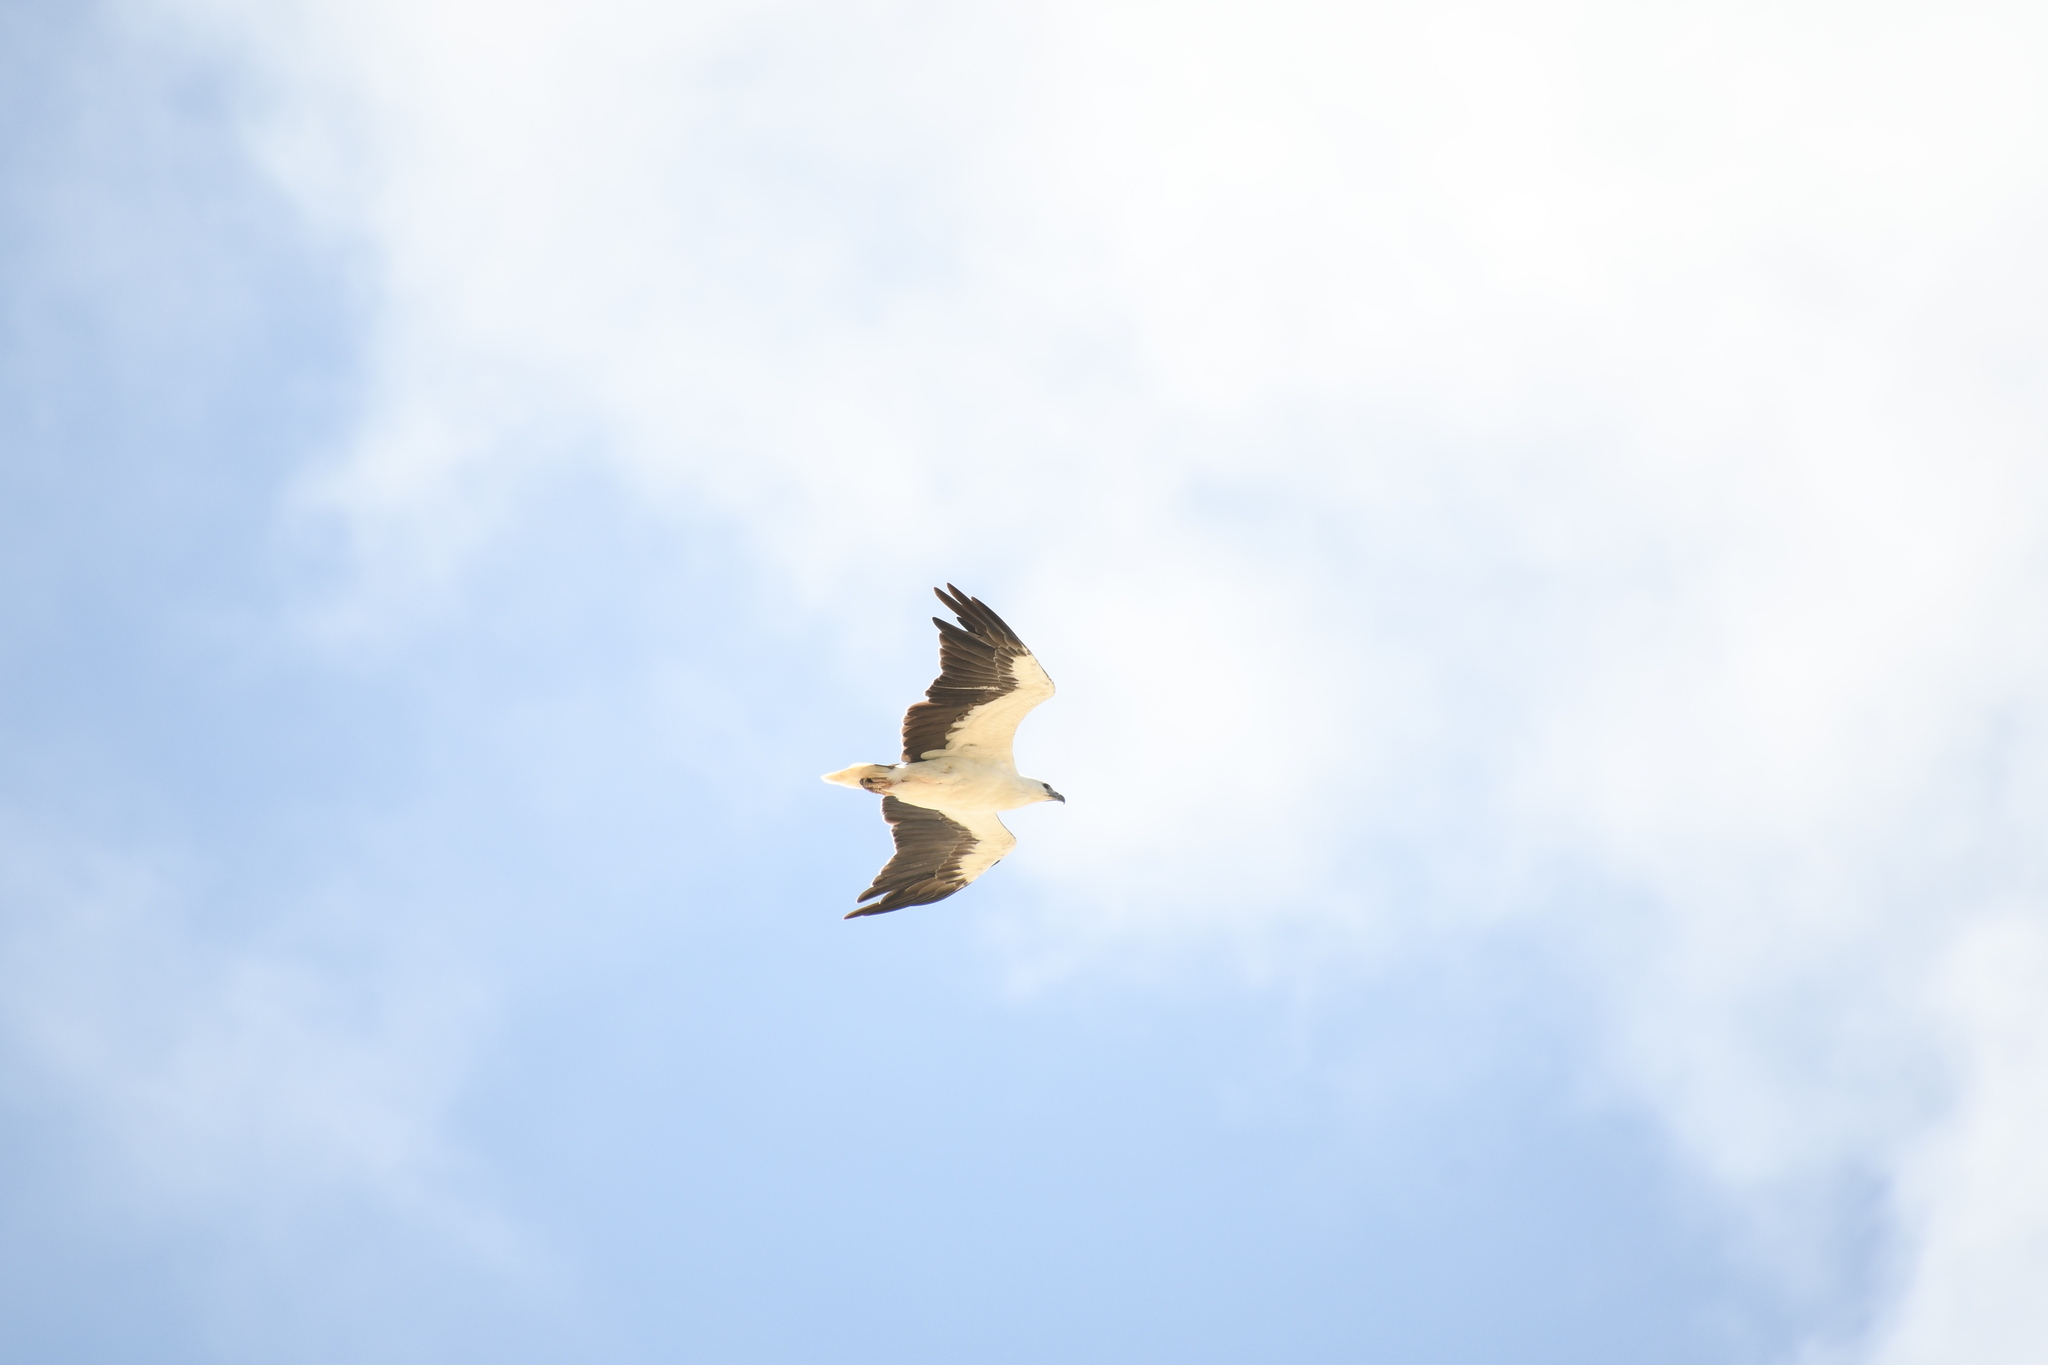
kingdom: Animalia
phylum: Chordata
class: Aves
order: Accipitriformes
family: Accipitridae
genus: Haliaeetus
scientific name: Haliaeetus leucogaster
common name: White-bellied sea eagle
